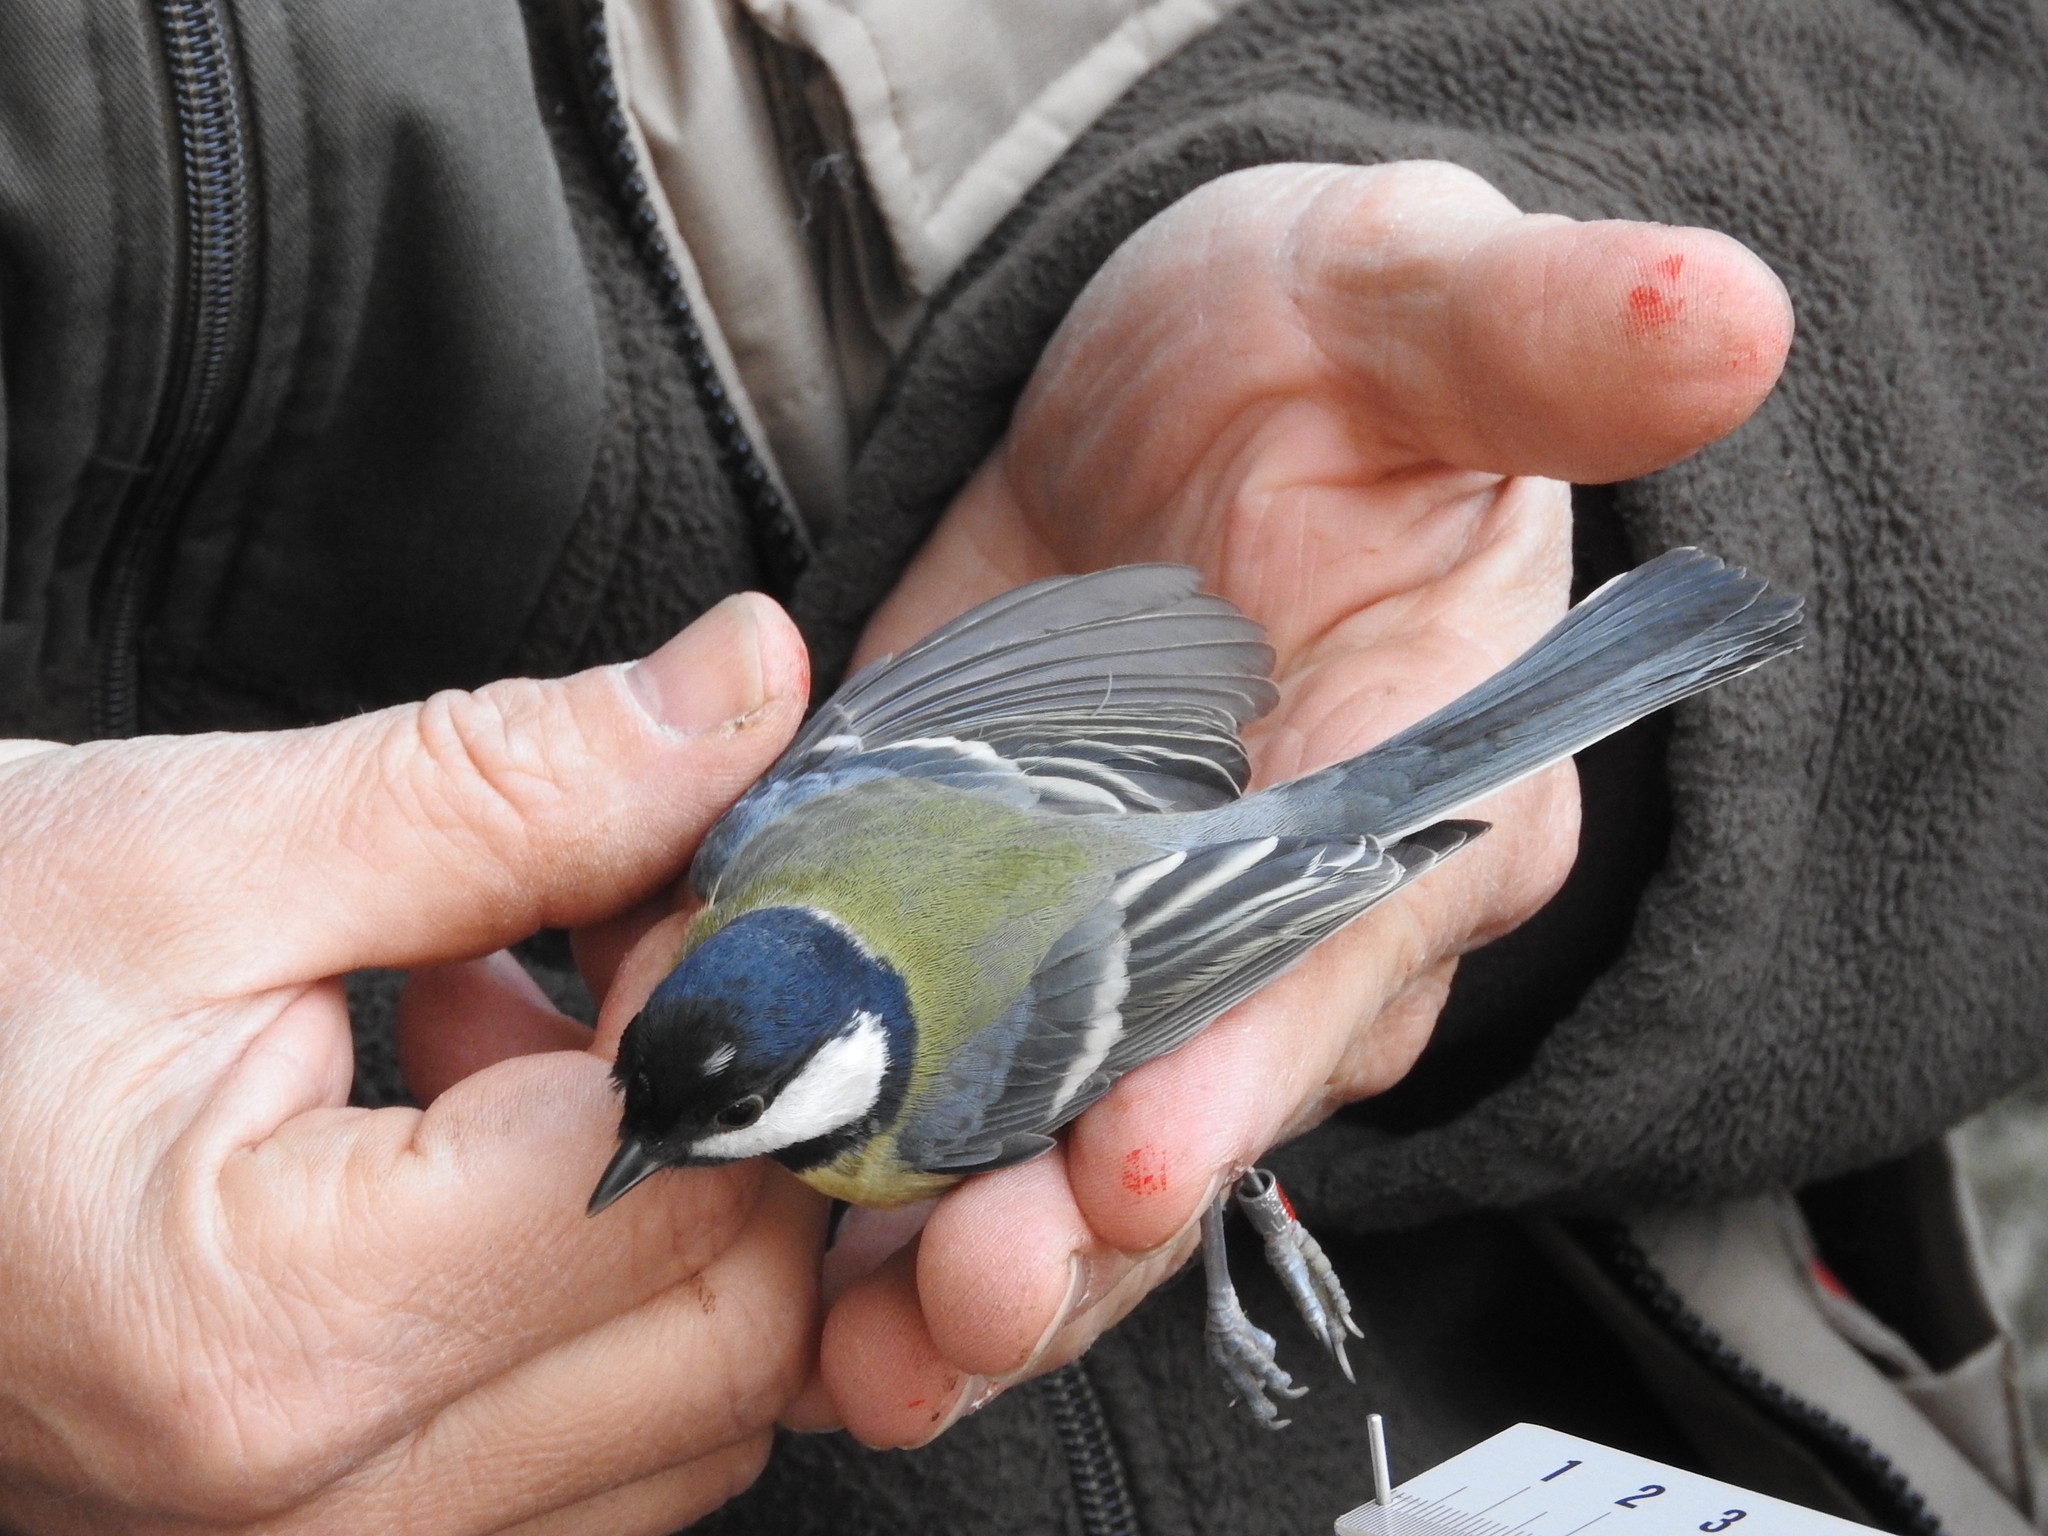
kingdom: Animalia
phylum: Chordata
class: Aves
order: Passeriformes
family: Paridae
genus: Parus
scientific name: Parus major
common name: Great tit
